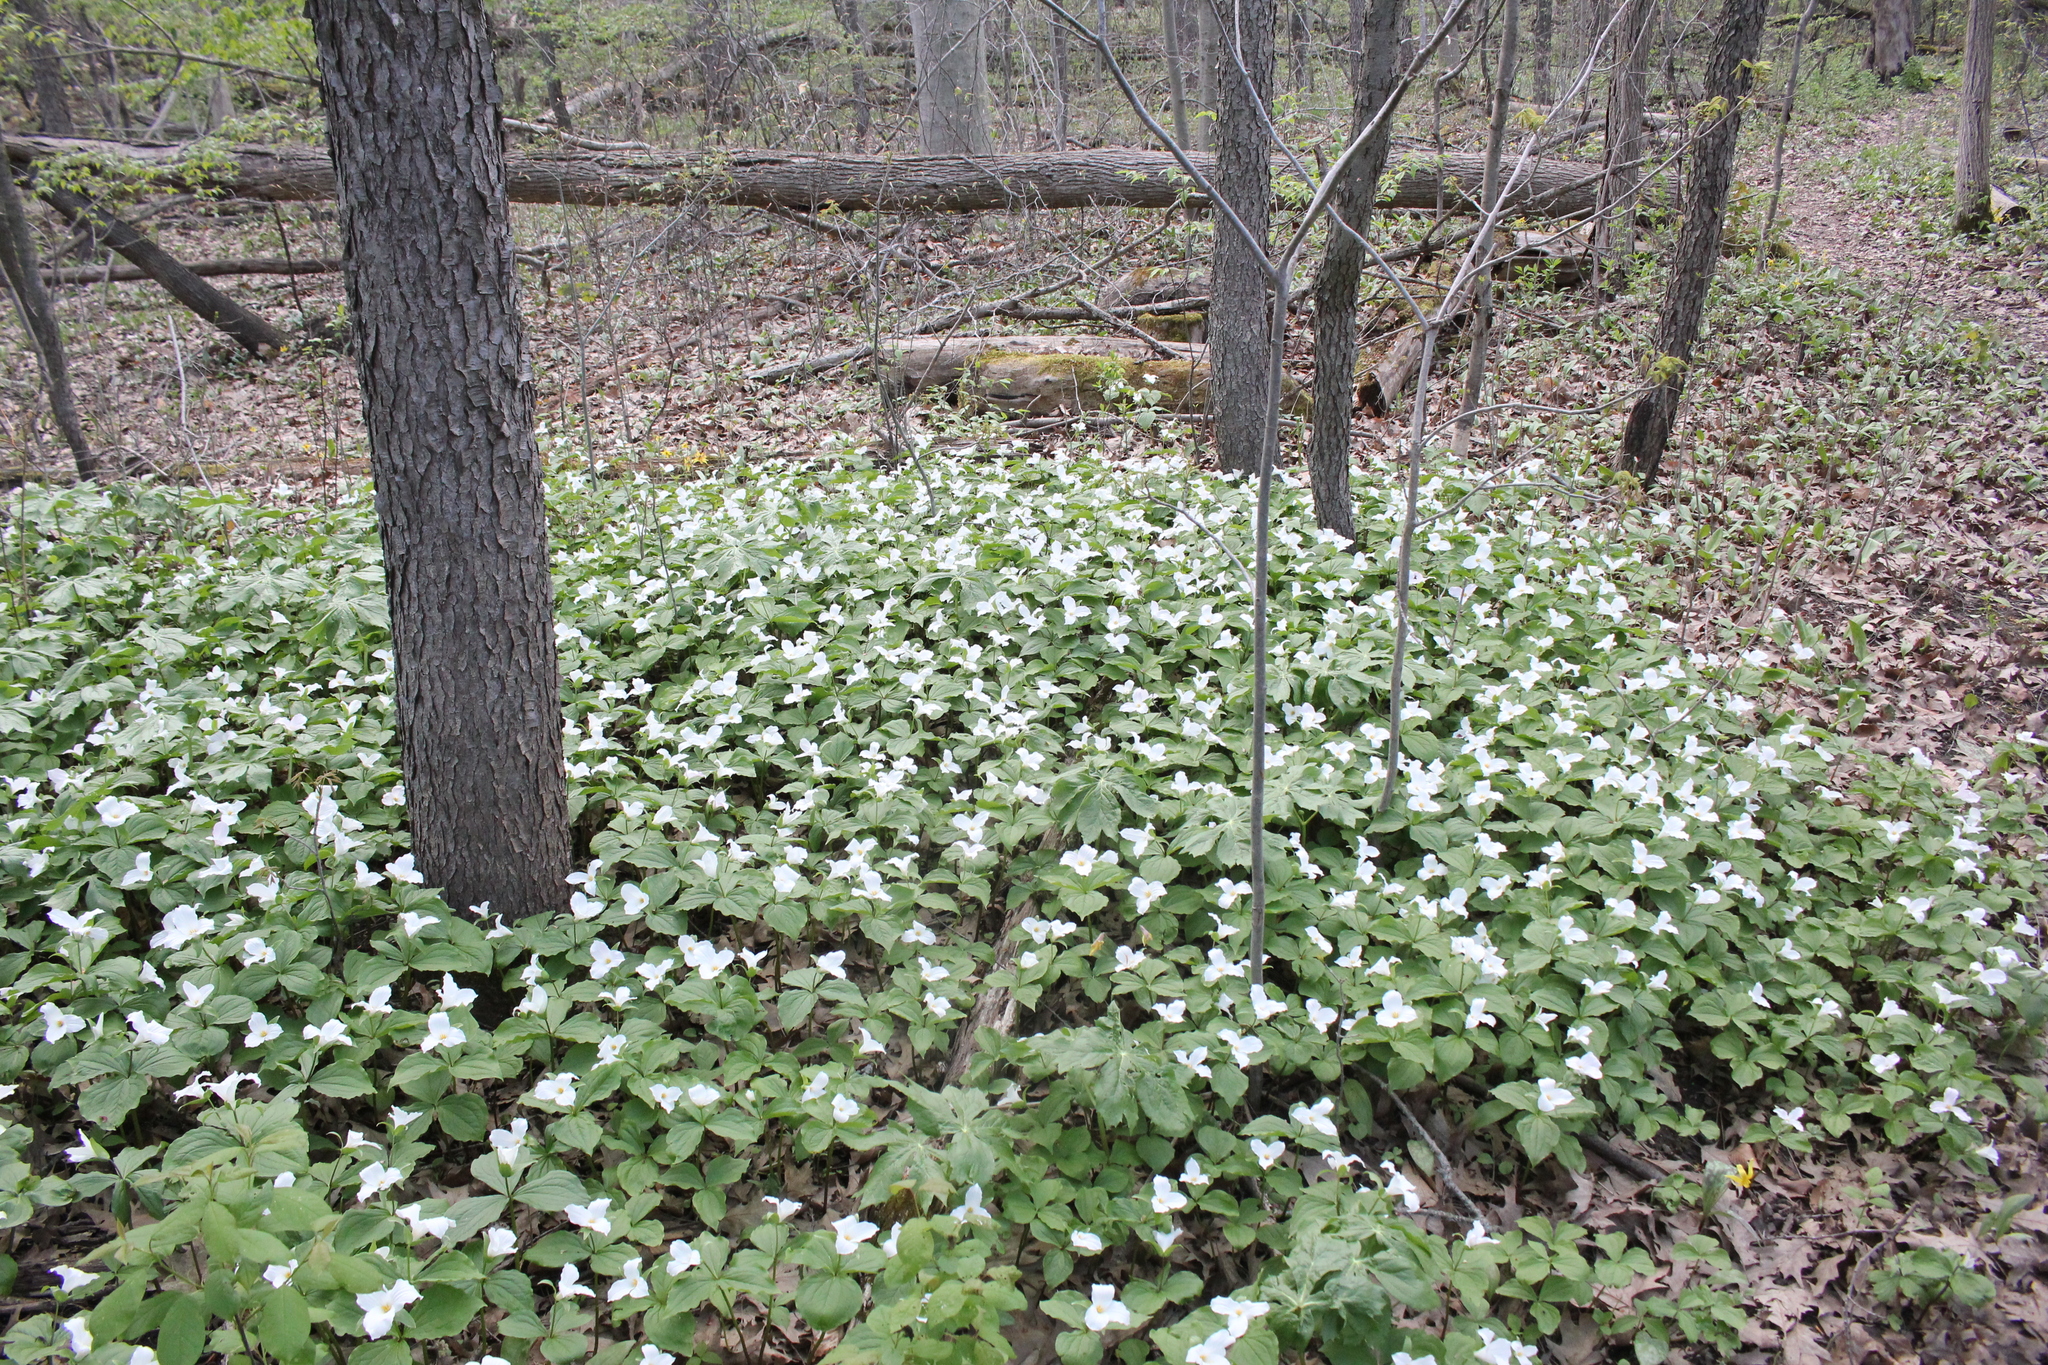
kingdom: Plantae
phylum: Tracheophyta
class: Liliopsida
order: Liliales
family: Melanthiaceae
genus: Trillium
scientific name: Trillium grandiflorum
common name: Great white trillium
